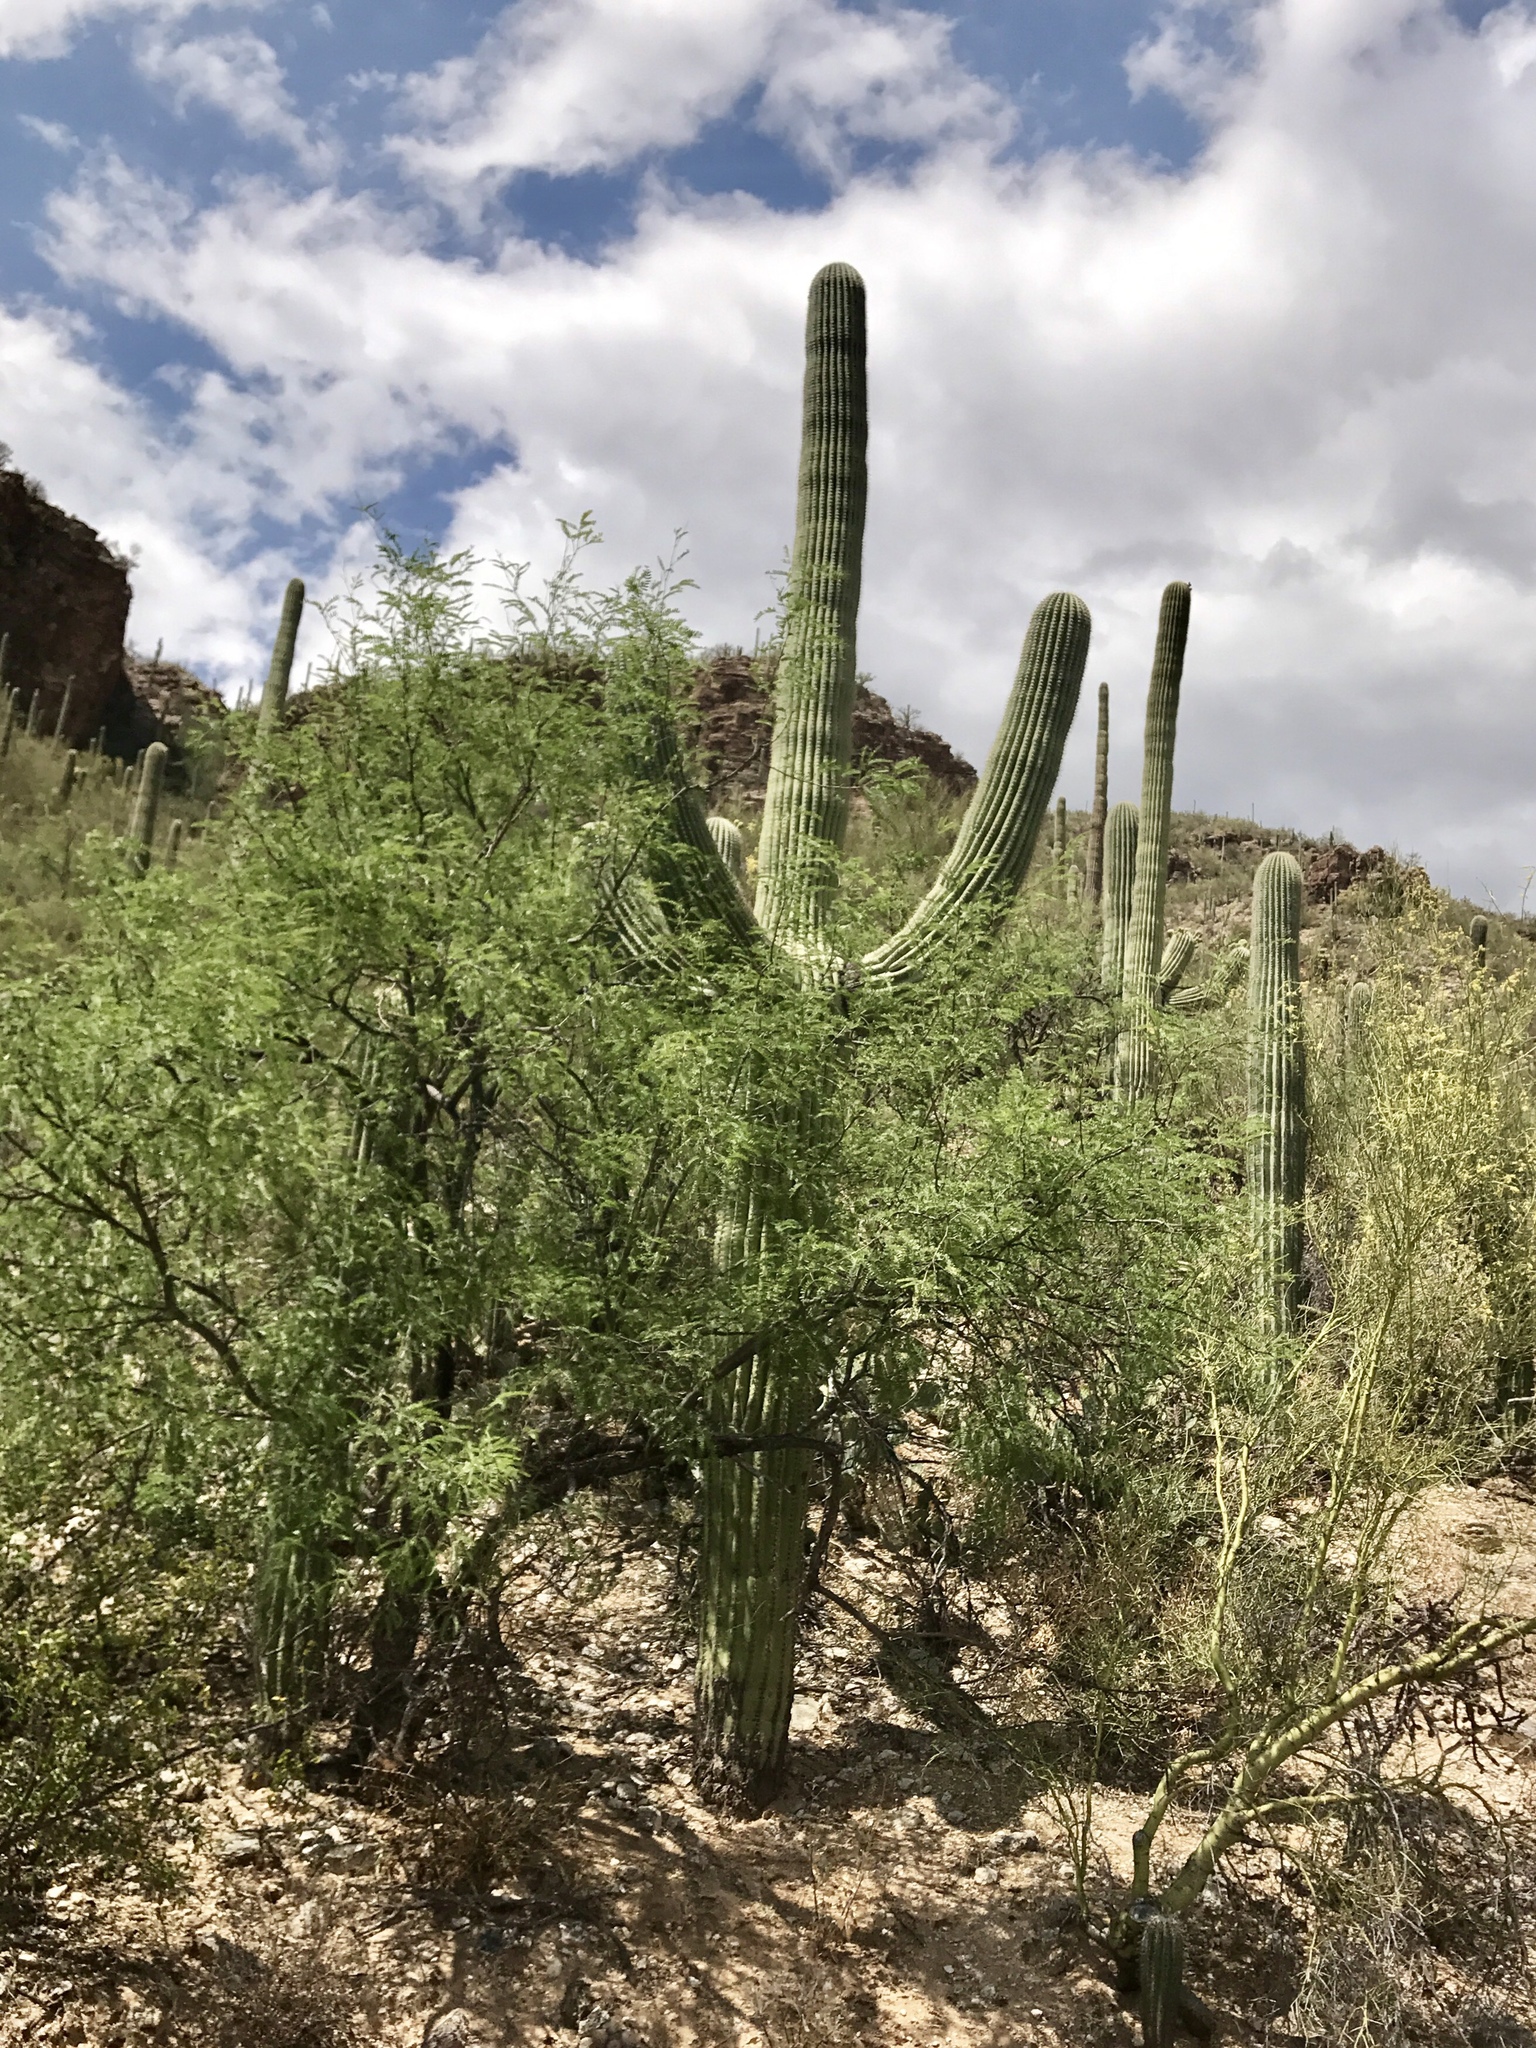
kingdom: Plantae
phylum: Tracheophyta
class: Magnoliopsida
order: Caryophyllales
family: Cactaceae
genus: Carnegiea
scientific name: Carnegiea gigantea
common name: Saguaro
